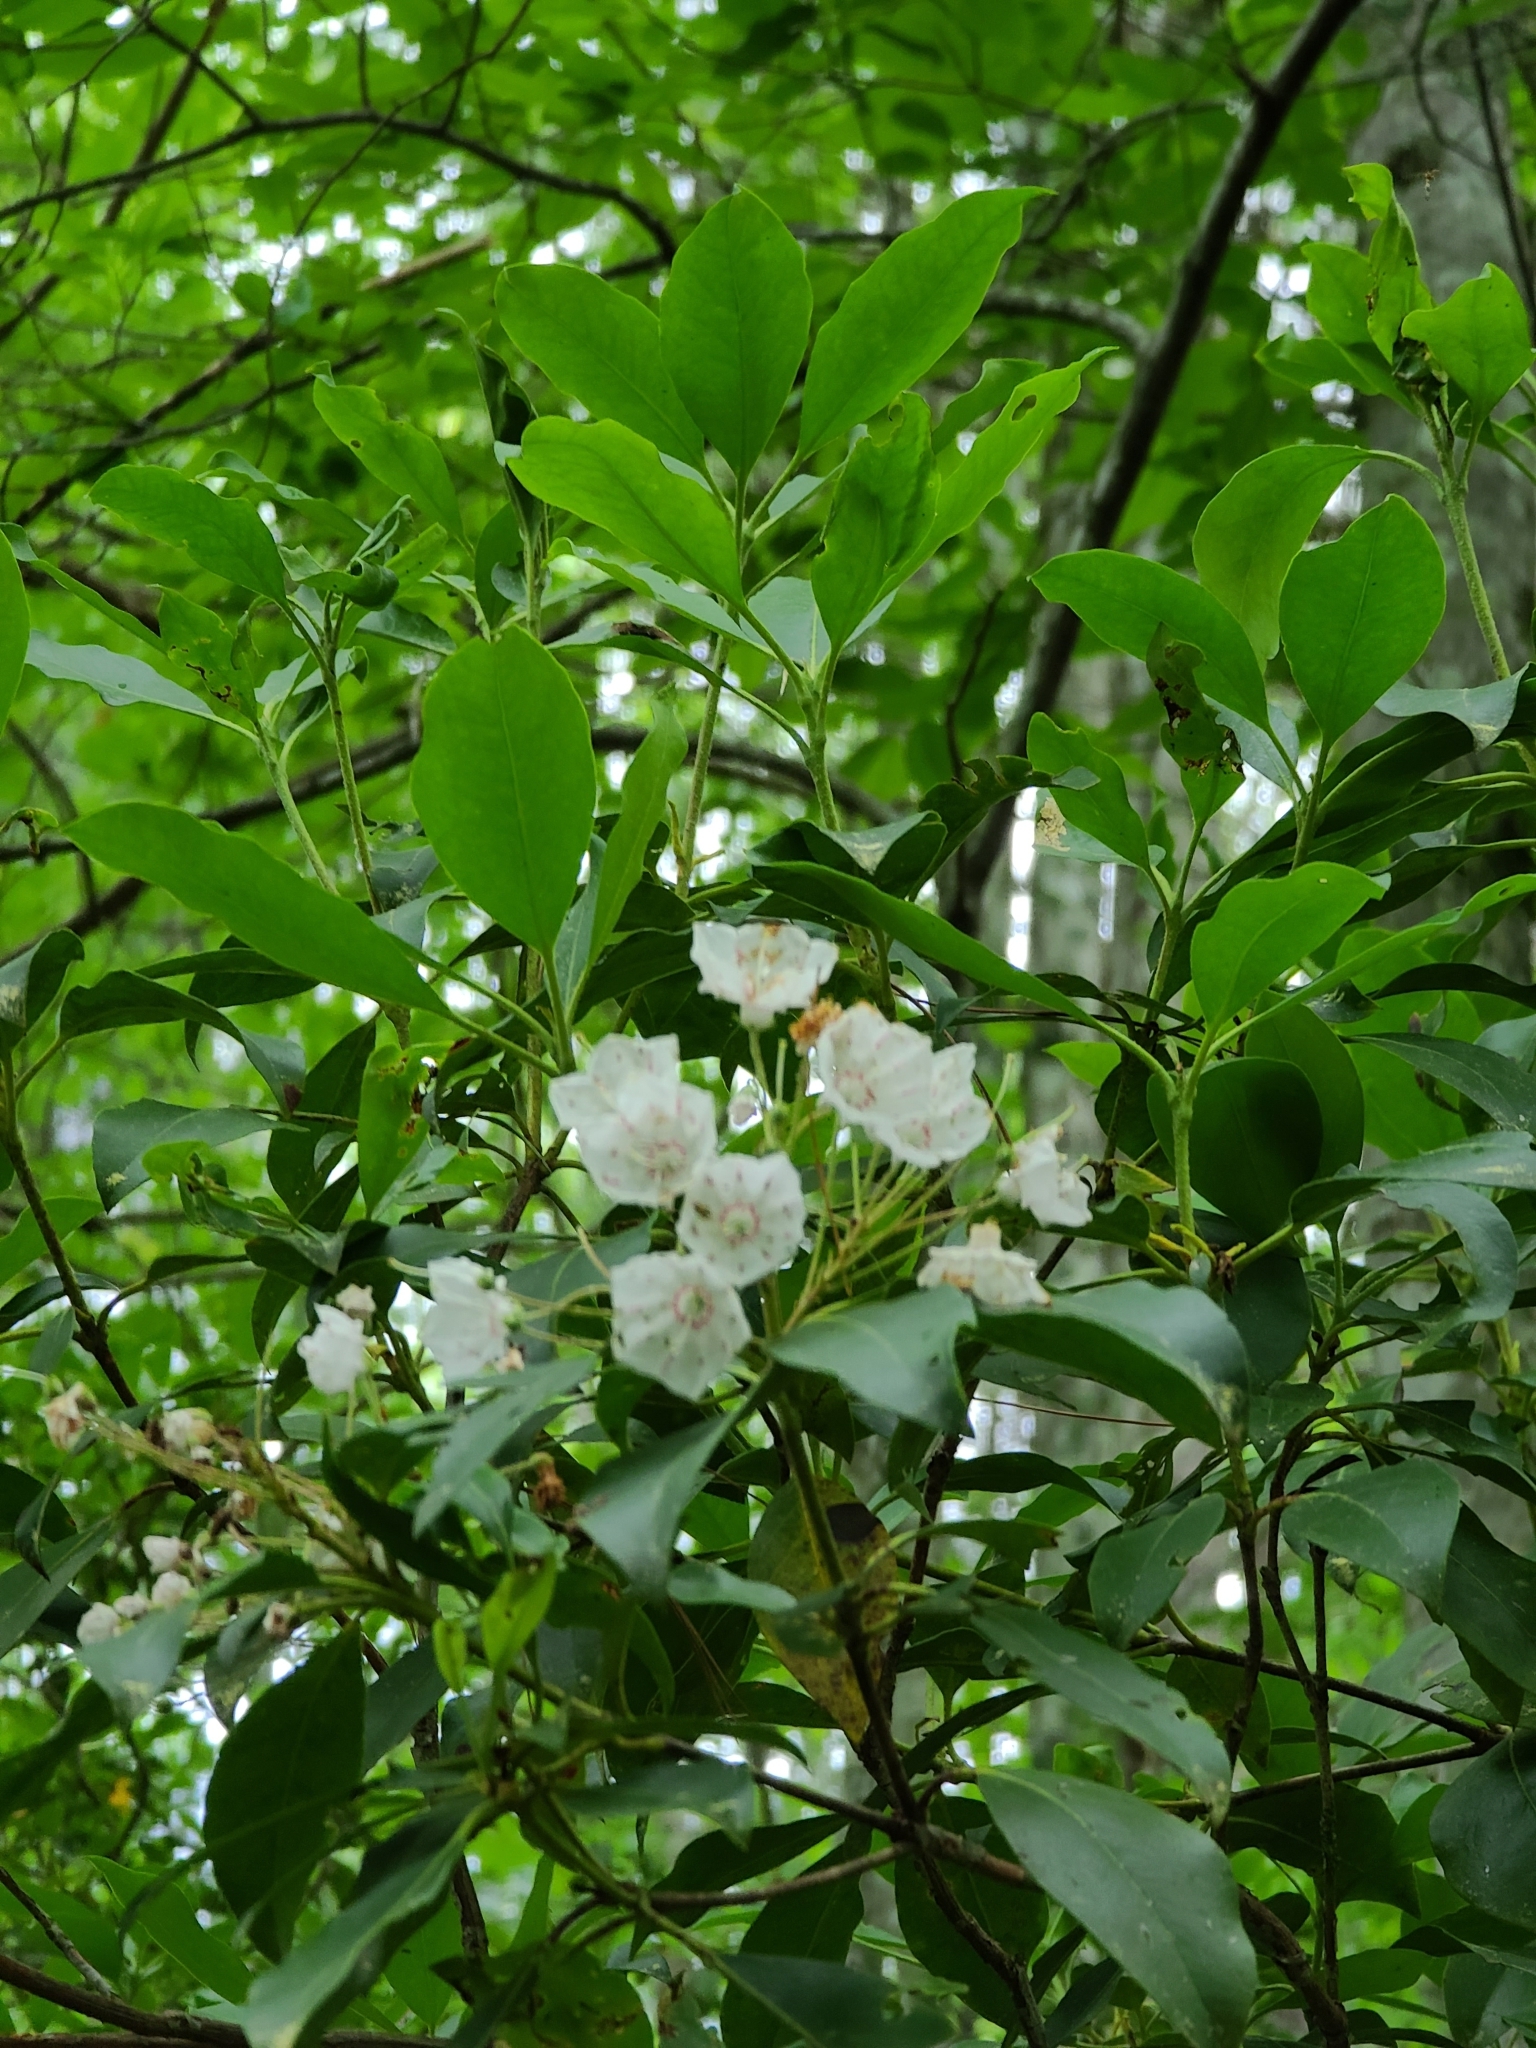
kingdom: Plantae
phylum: Tracheophyta
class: Magnoliopsida
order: Ericales
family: Ericaceae
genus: Kalmia
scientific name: Kalmia latifolia
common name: Mountain-laurel
